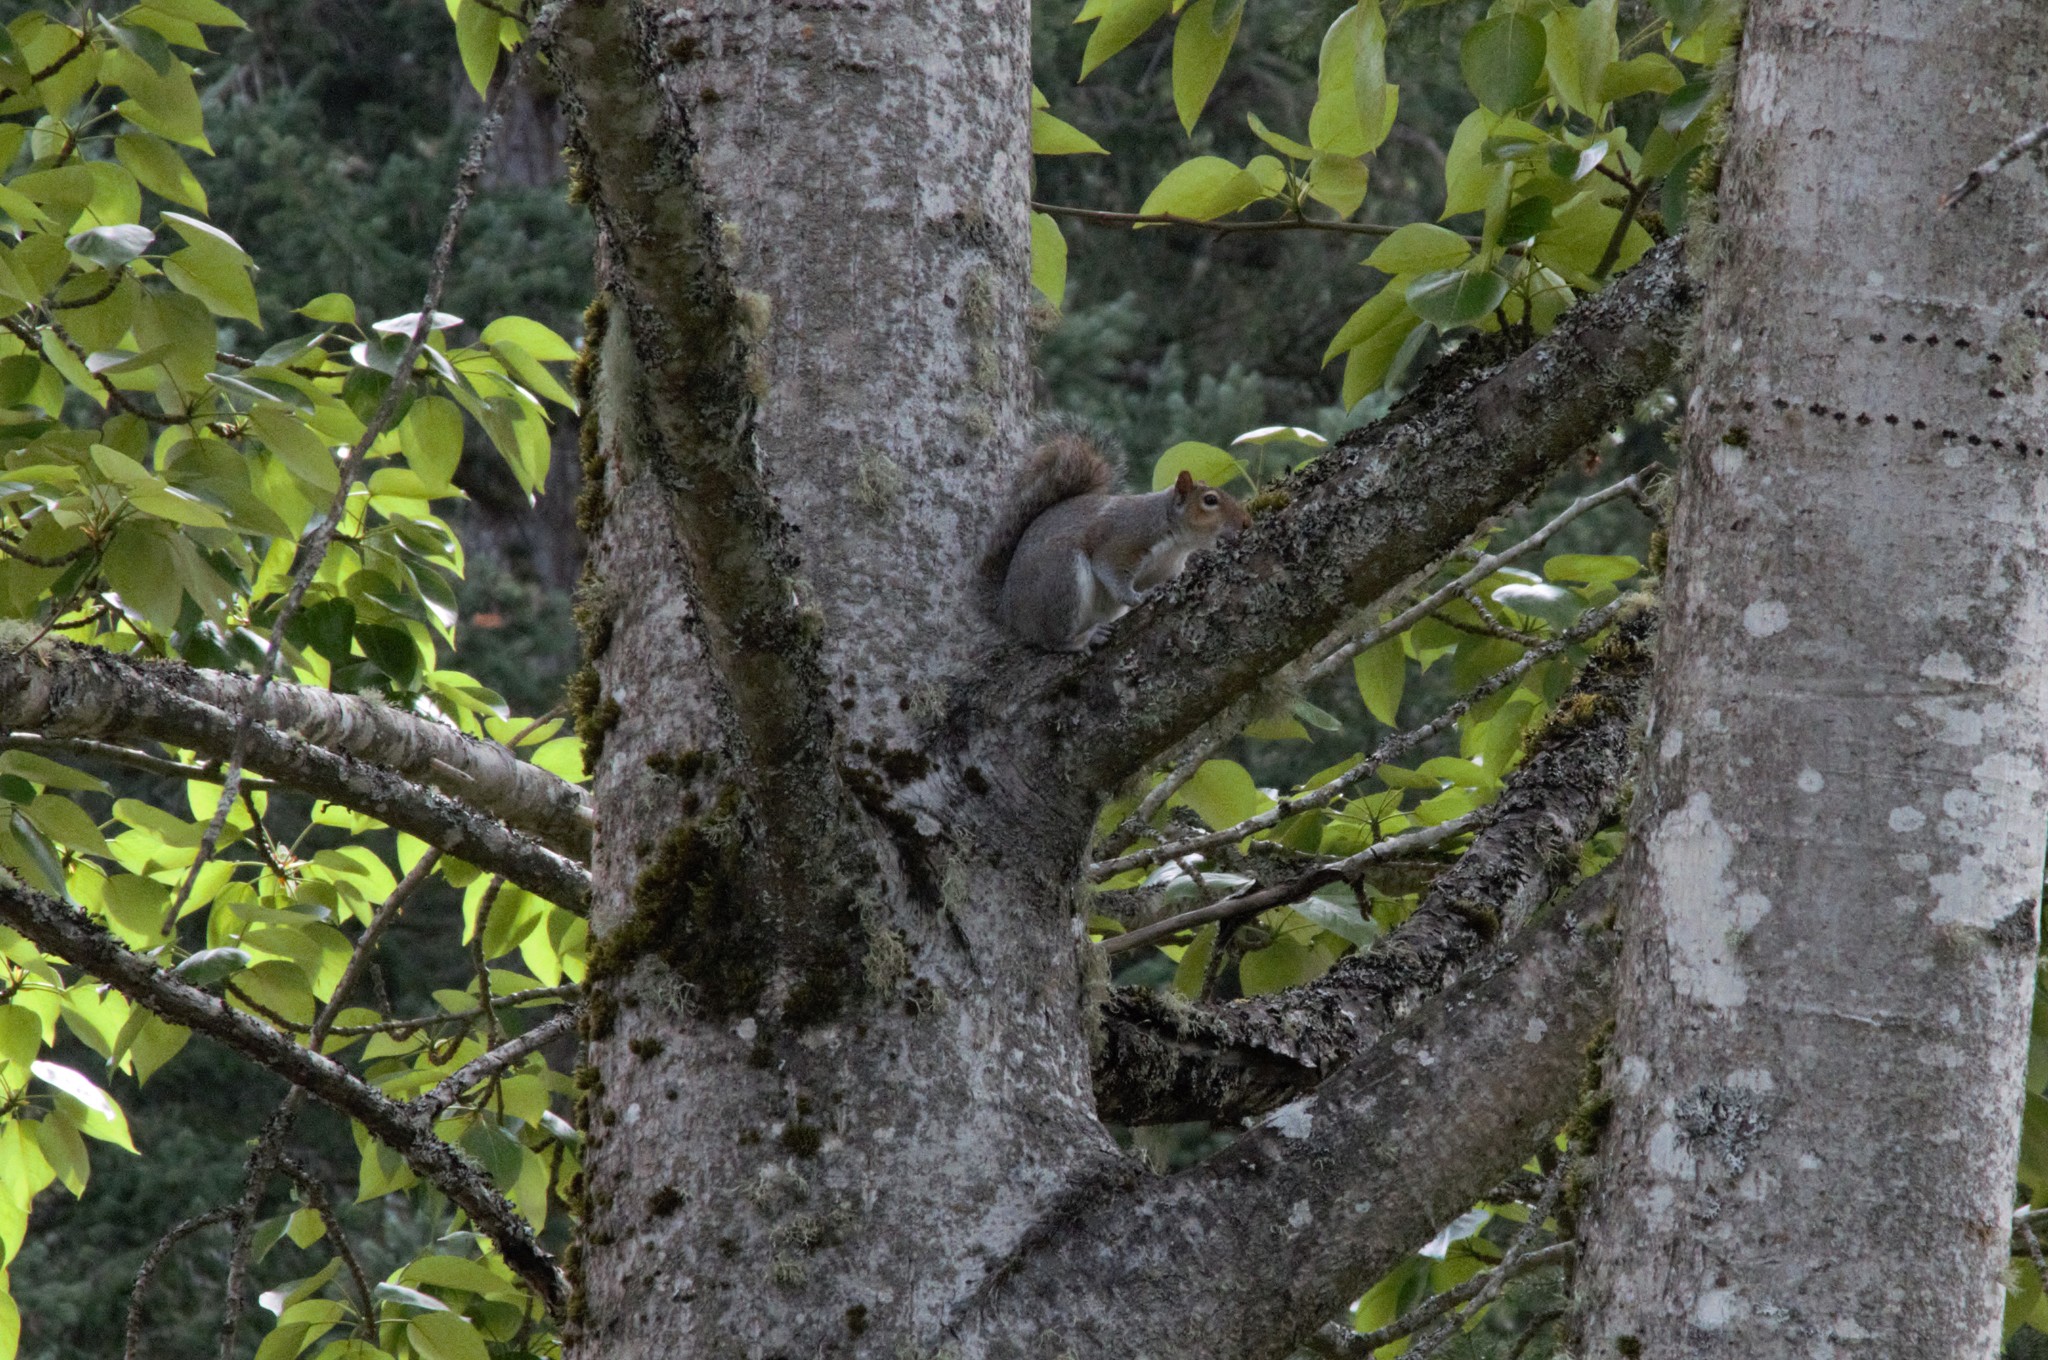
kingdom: Animalia
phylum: Chordata
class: Mammalia
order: Rodentia
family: Sciuridae
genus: Sciurus
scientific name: Sciurus carolinensis
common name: Eastern gray squirrel
